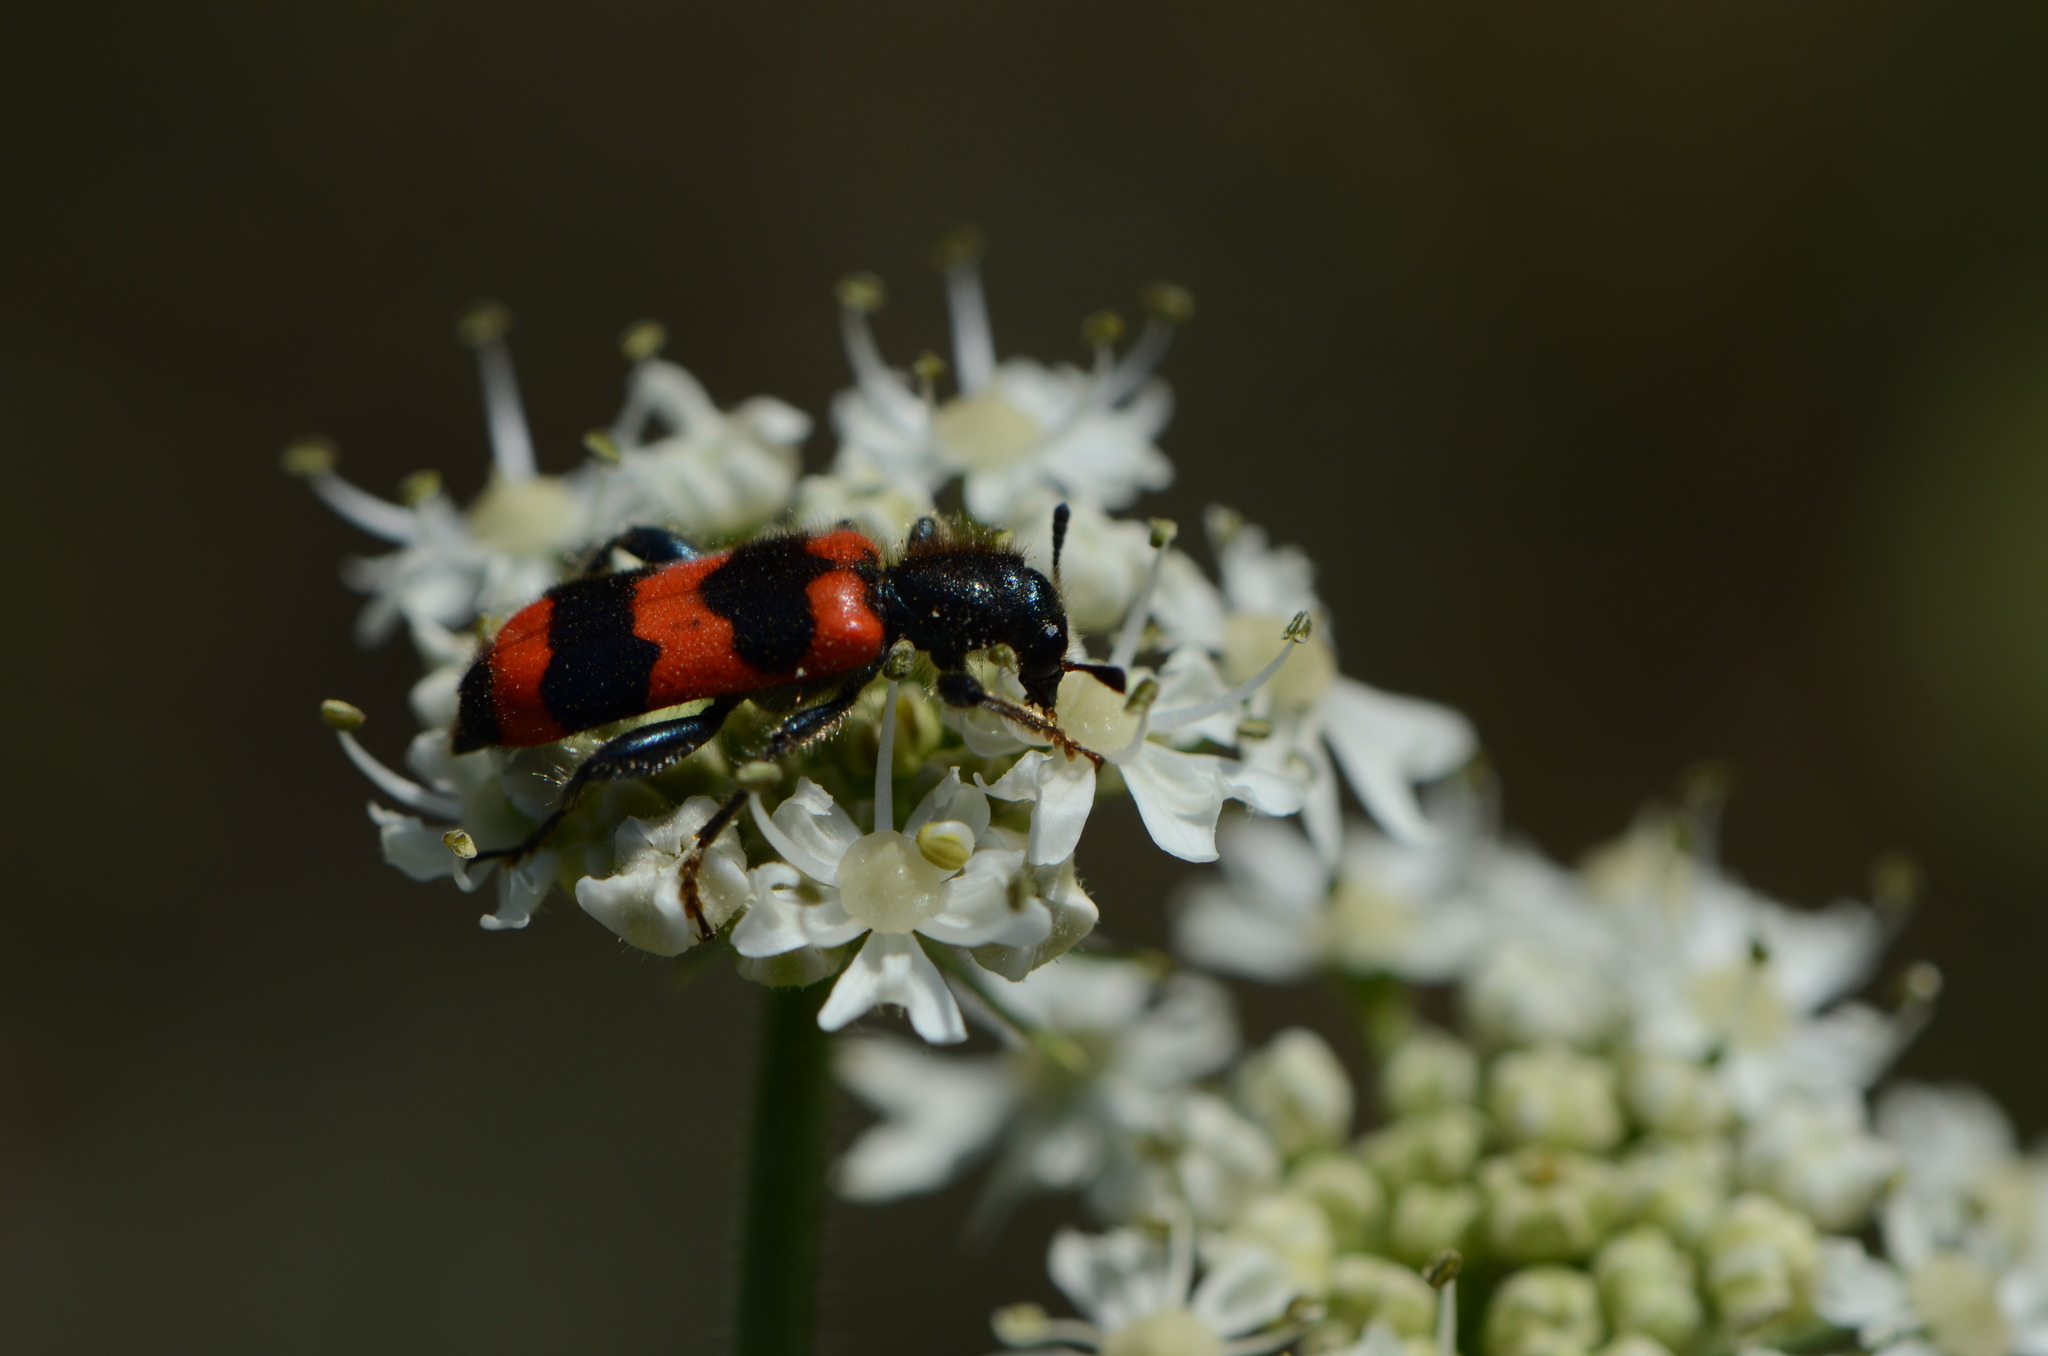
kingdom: Animalia
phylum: Arthropoda
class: Insecta
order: Coleoptera
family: Cleridae
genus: Trichodes
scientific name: Trichodes apiarius
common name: Bee-eating beetle
